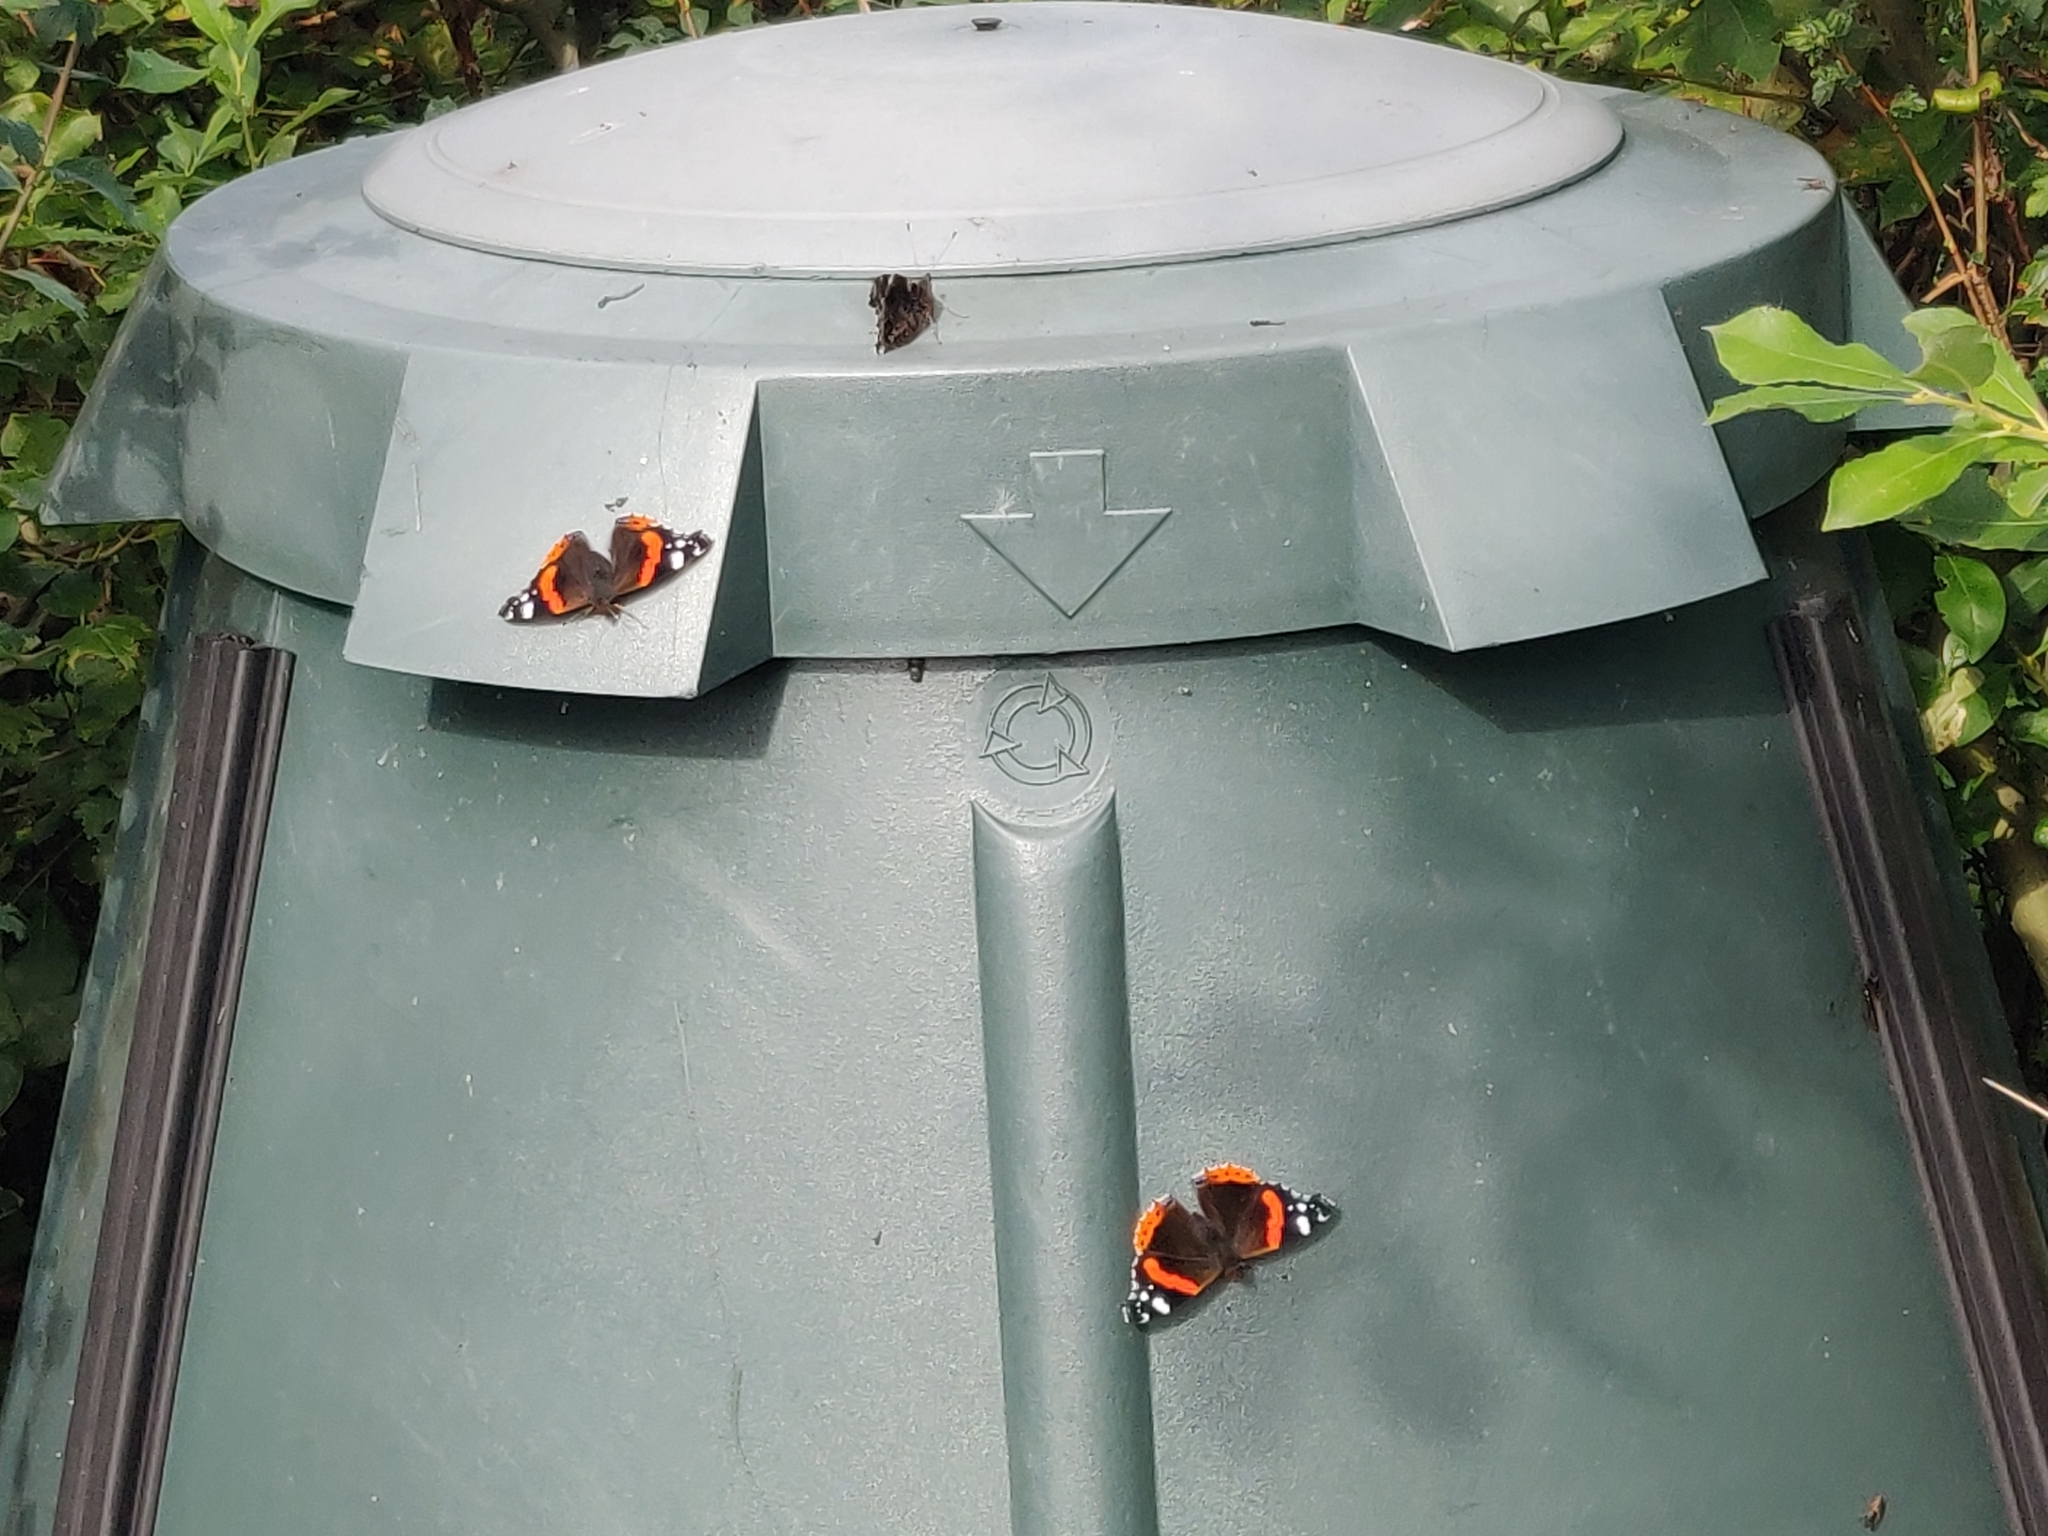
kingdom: Animalia
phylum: Arthropoda
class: Insecta
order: Lepidoptera
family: Nymphalidae
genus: Vanessa
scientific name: Vanessa atalanta
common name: Red admiral
